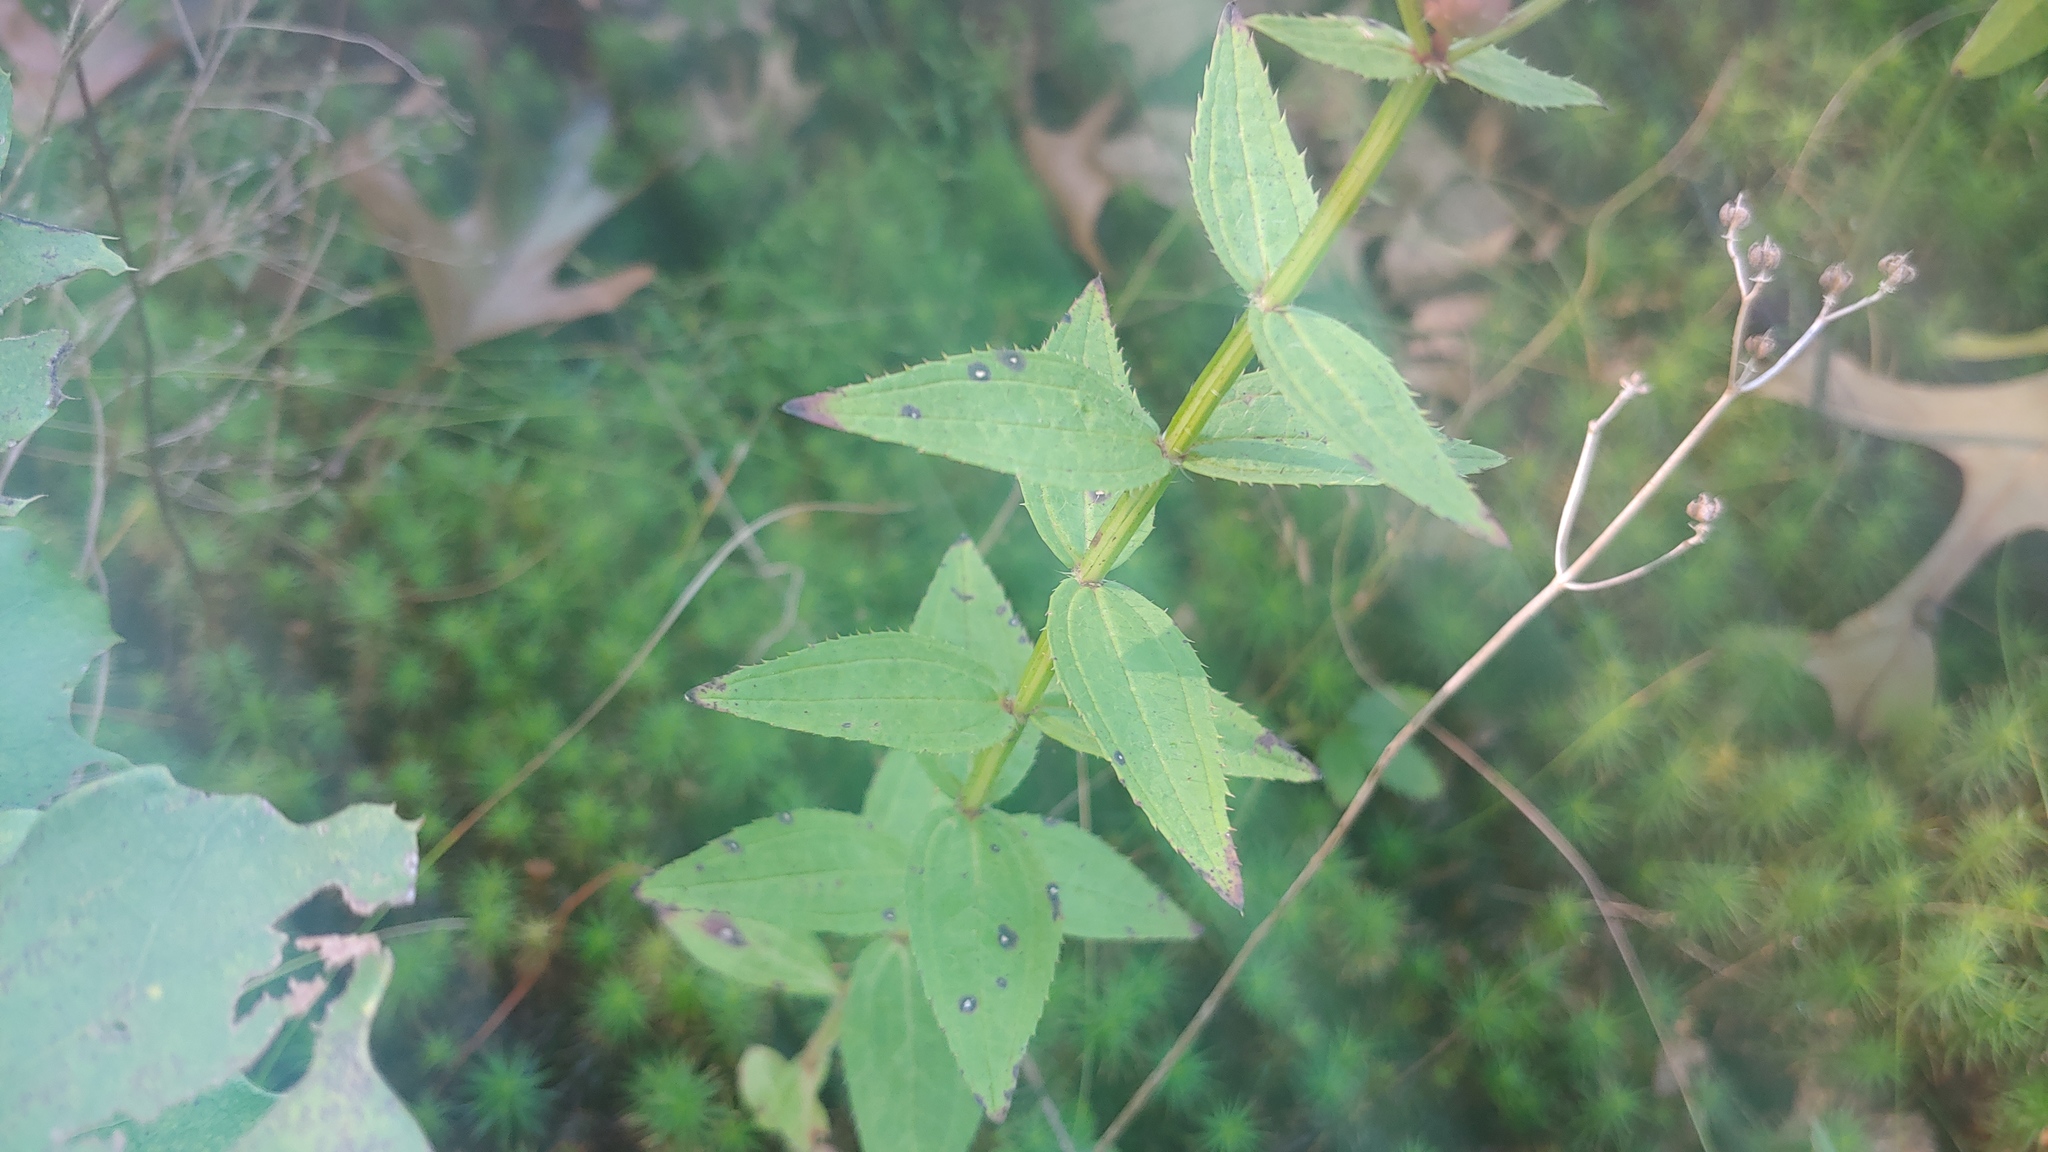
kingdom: Plantae
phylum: Tracheophyta
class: Magnoliopsida
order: Myrtales
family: Melastomataceae
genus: Rhexia
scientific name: Rhexia virginica
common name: Common meadow beauty
